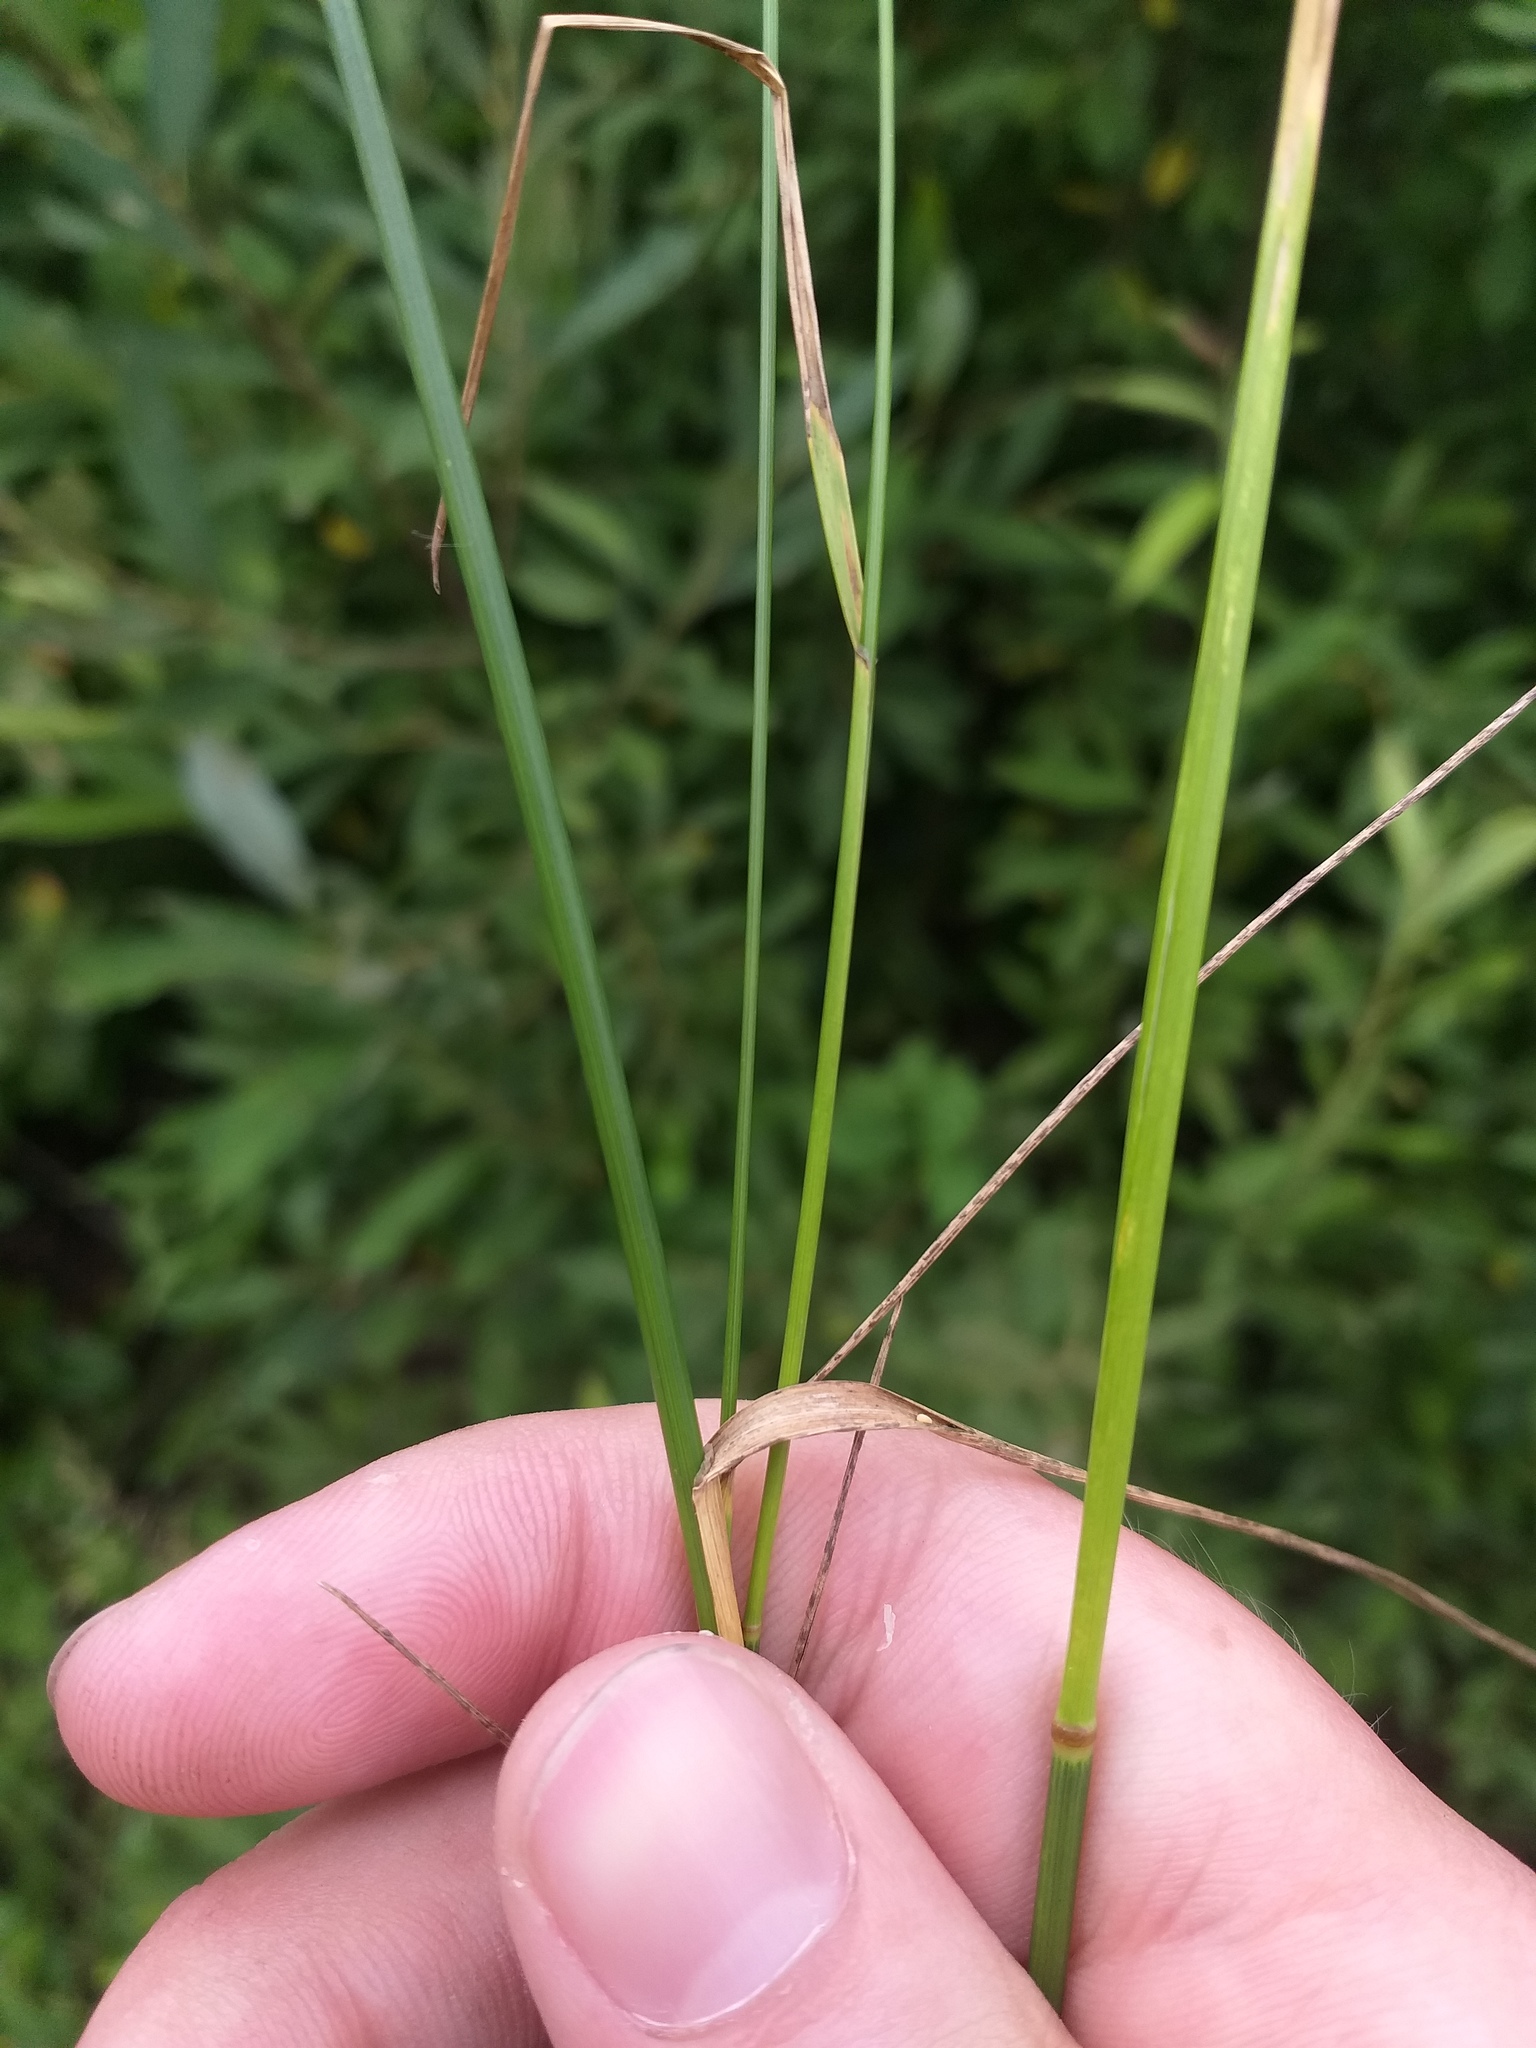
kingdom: Plantae
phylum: Tracheophyta
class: Liliopsida
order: Poales
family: Poaceae
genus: Poa
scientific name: Poa palustris
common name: Swamp meadow-grass
